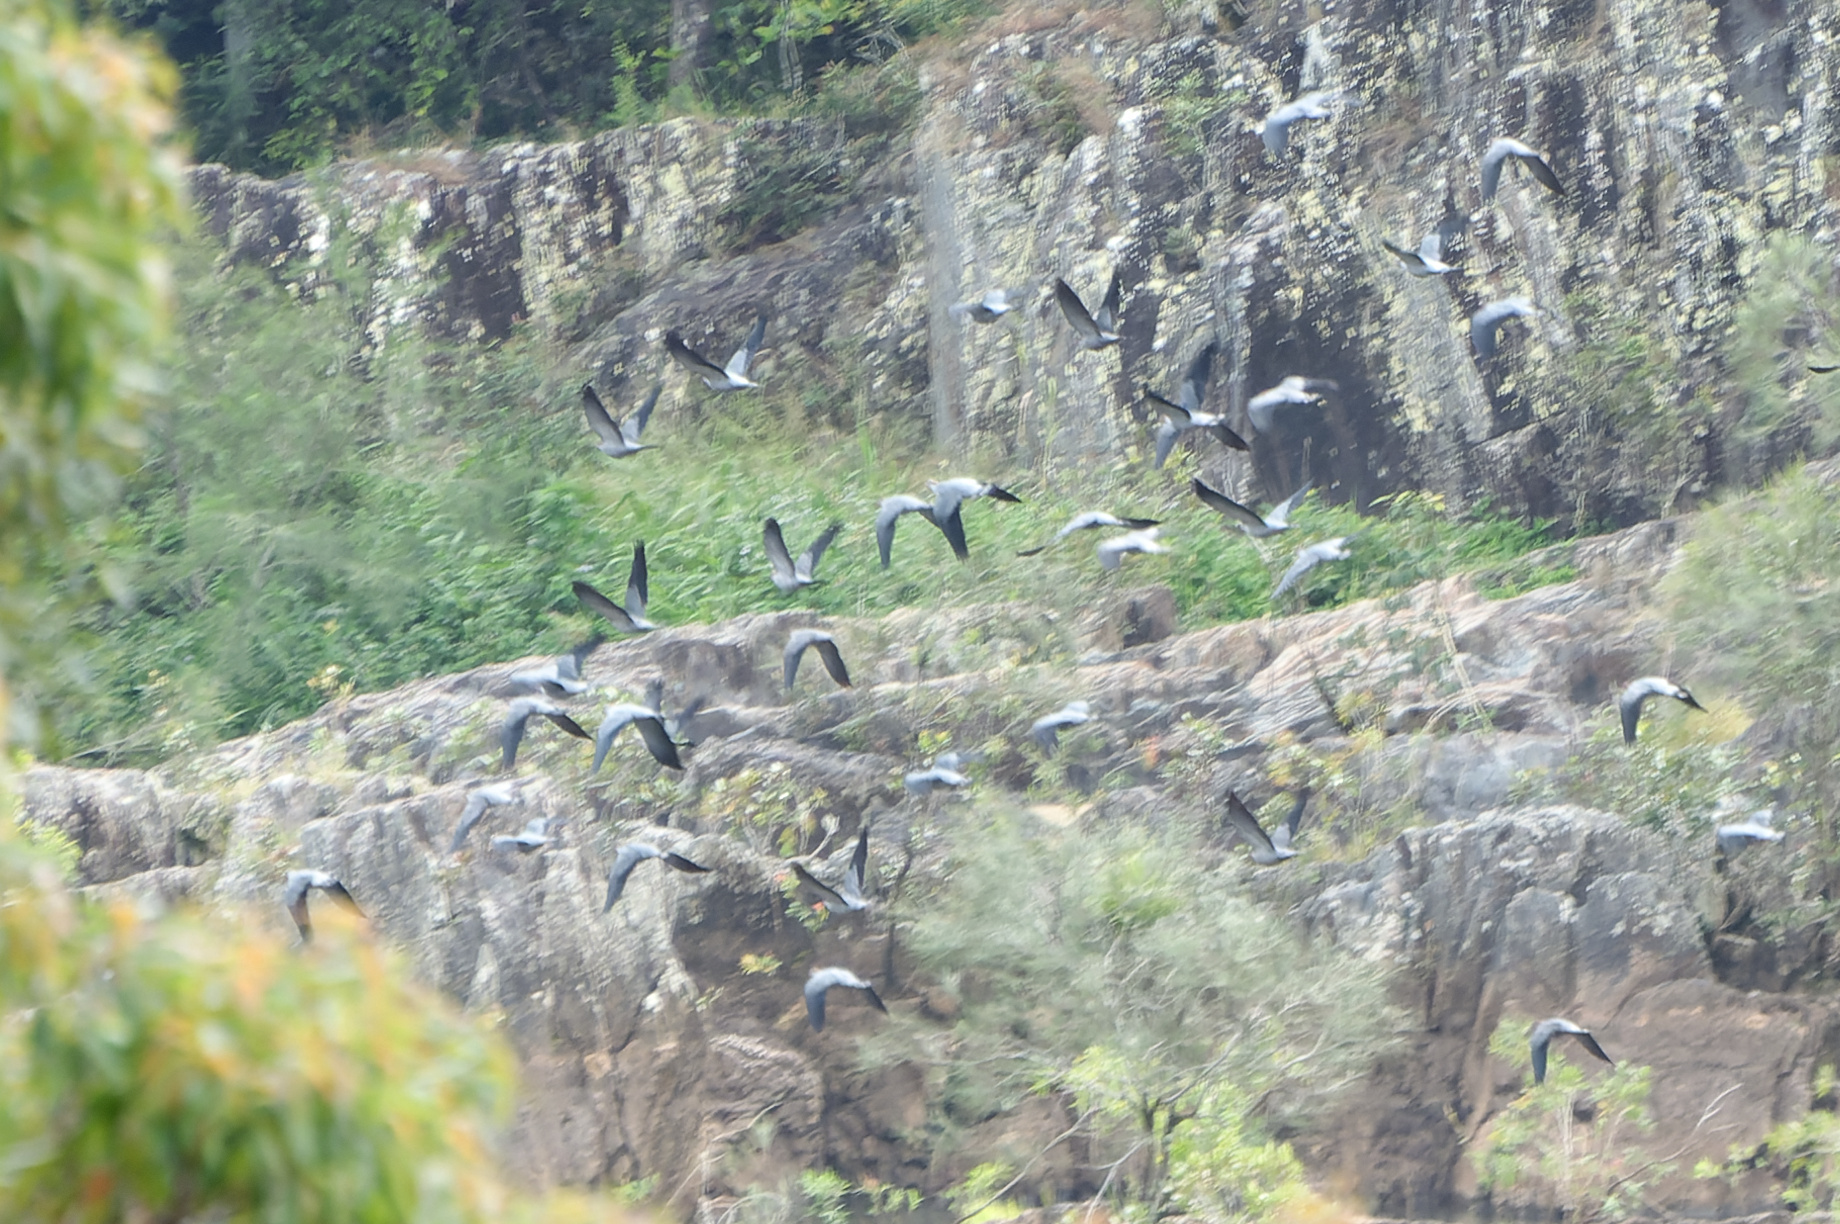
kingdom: Animalia
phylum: Chordata
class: Aves
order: Columbiformes
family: Columbidae
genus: Lopholaimus
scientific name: Lopholaimus antarcticus
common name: Topknot pigeon
